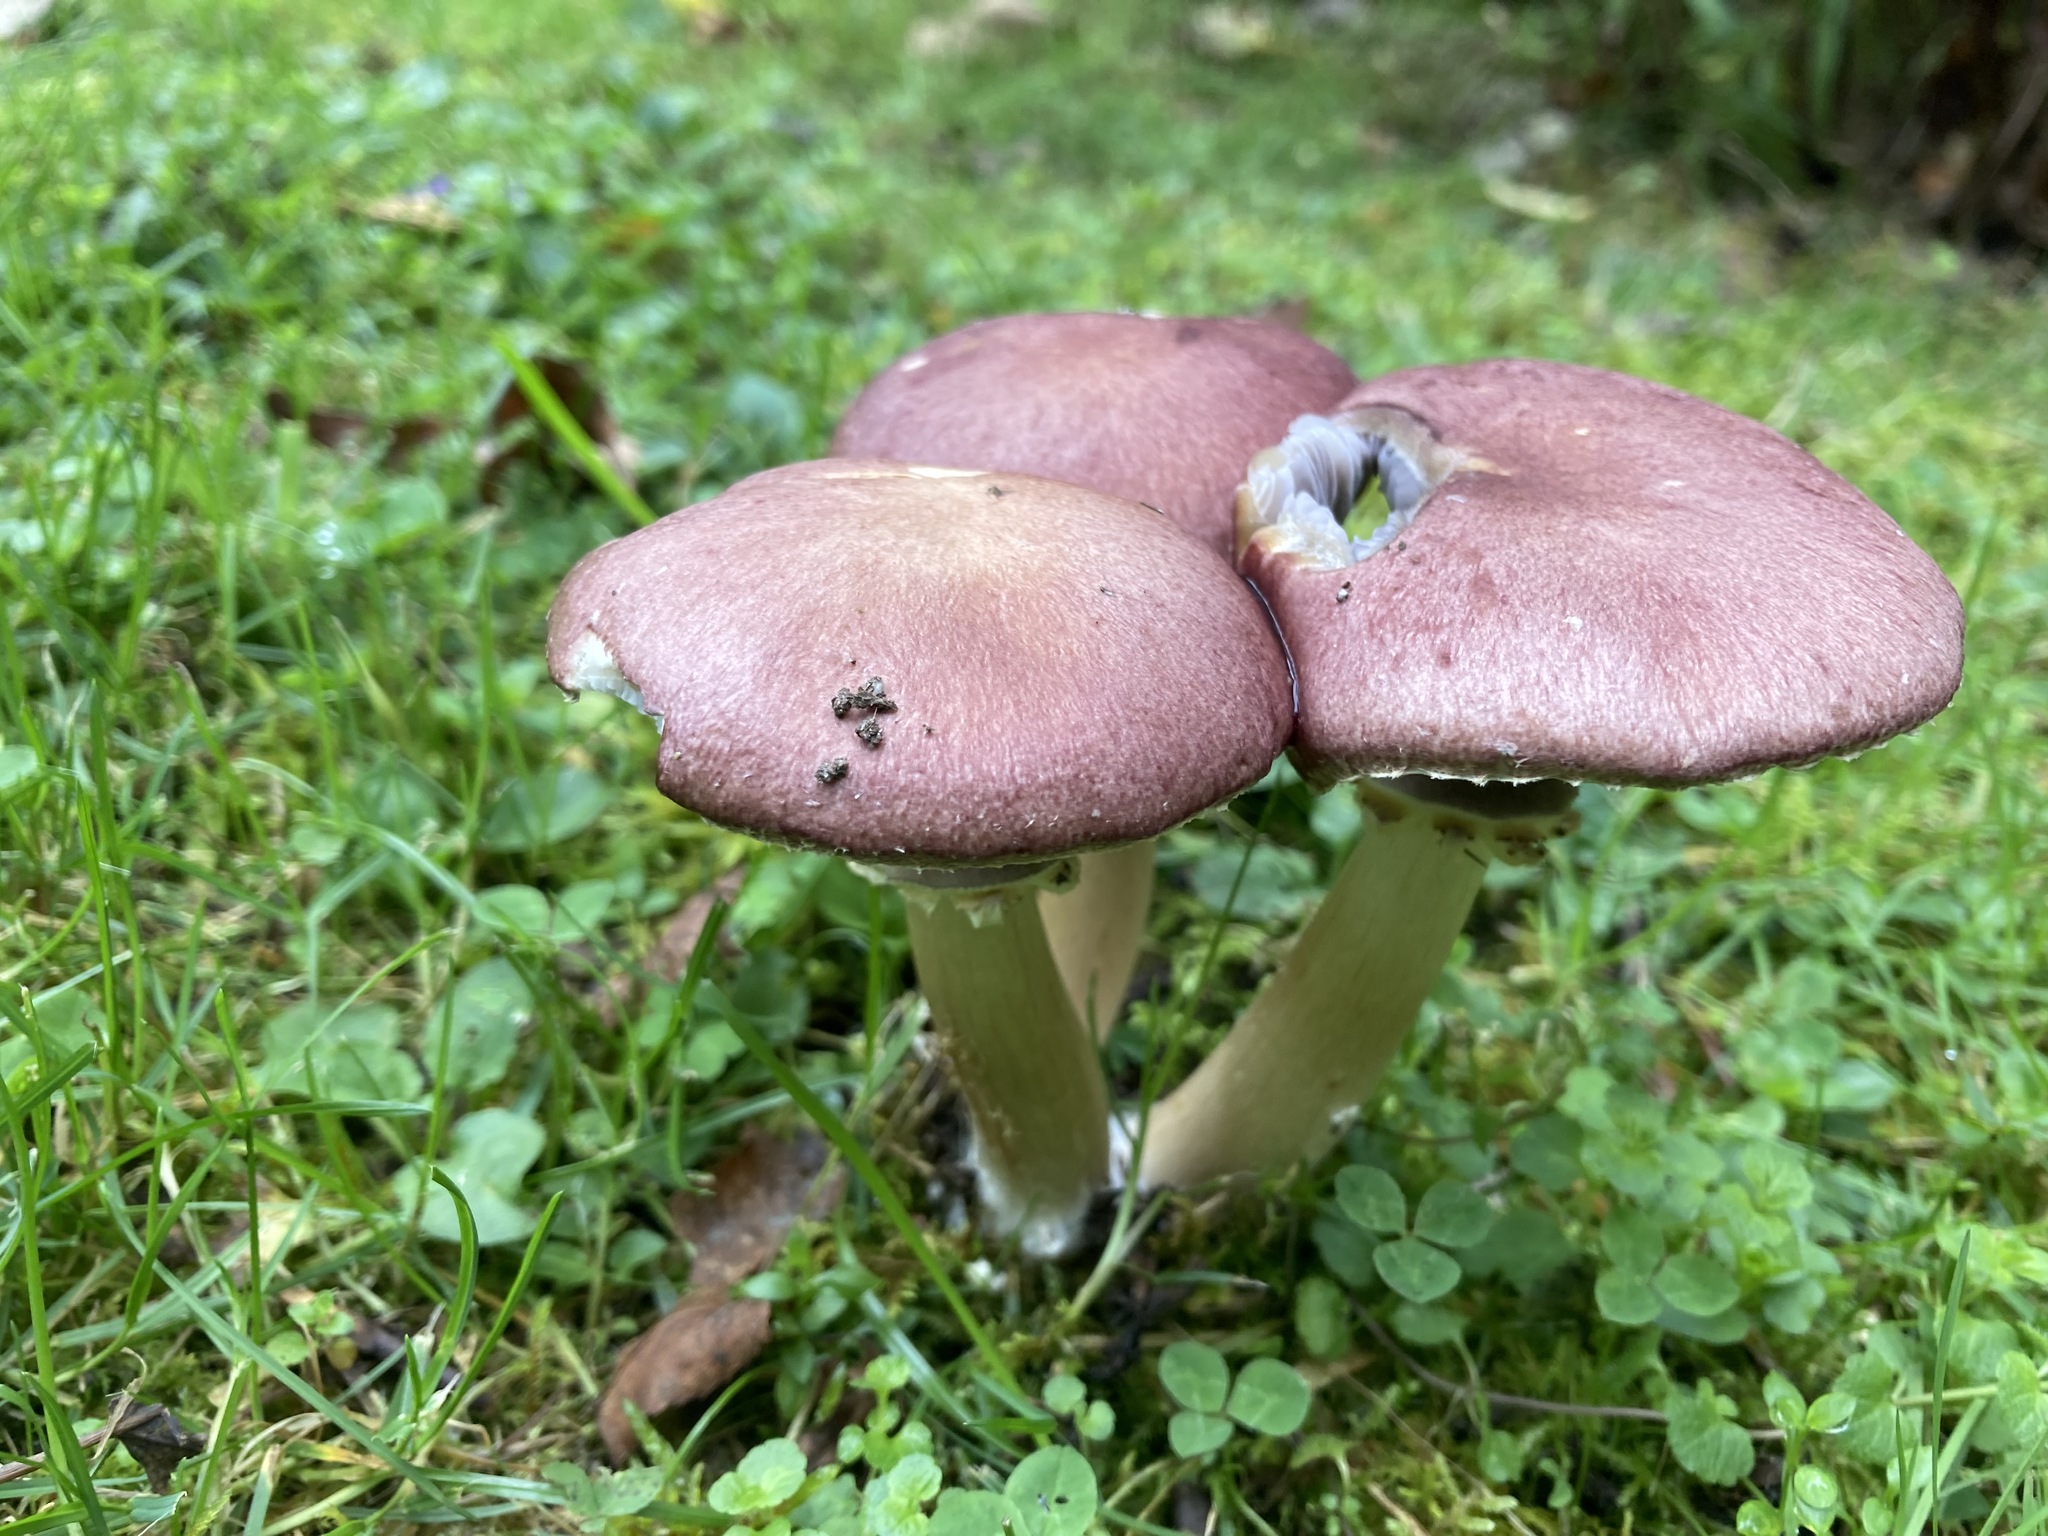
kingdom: Fungi
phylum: Basidiomycota
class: Agaricomycetes
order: Agaricales
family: Strophariaceae
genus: Stropharia
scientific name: Stropharia rugosoannulata
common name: Wine roundhead
